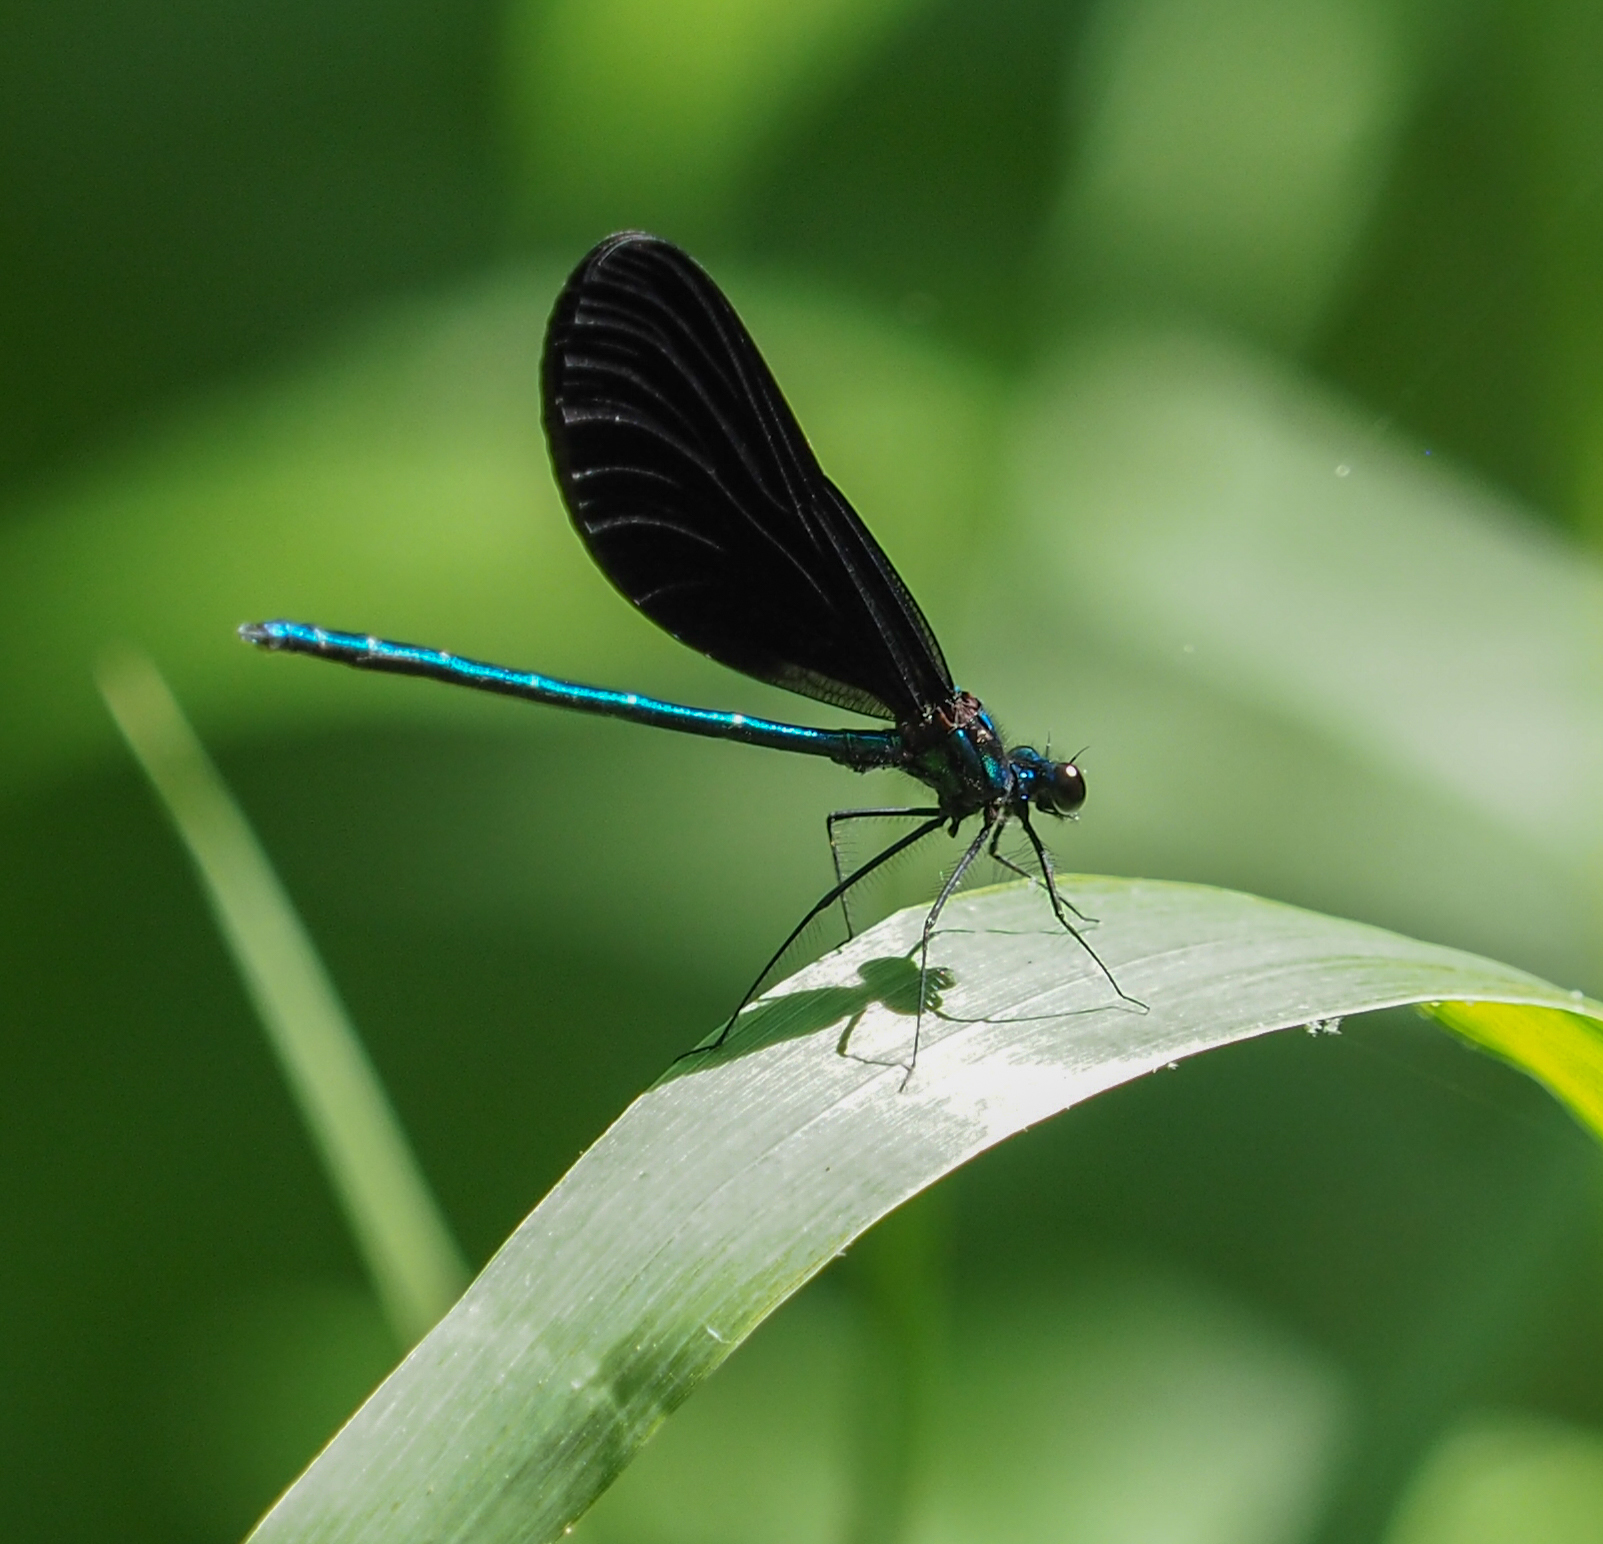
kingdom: Animalia
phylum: Arthropoda
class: Insecta
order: Odonata
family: Calopterygidae
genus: Calopteryx
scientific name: Calopteryx maculata
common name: Ebony jewelwing
